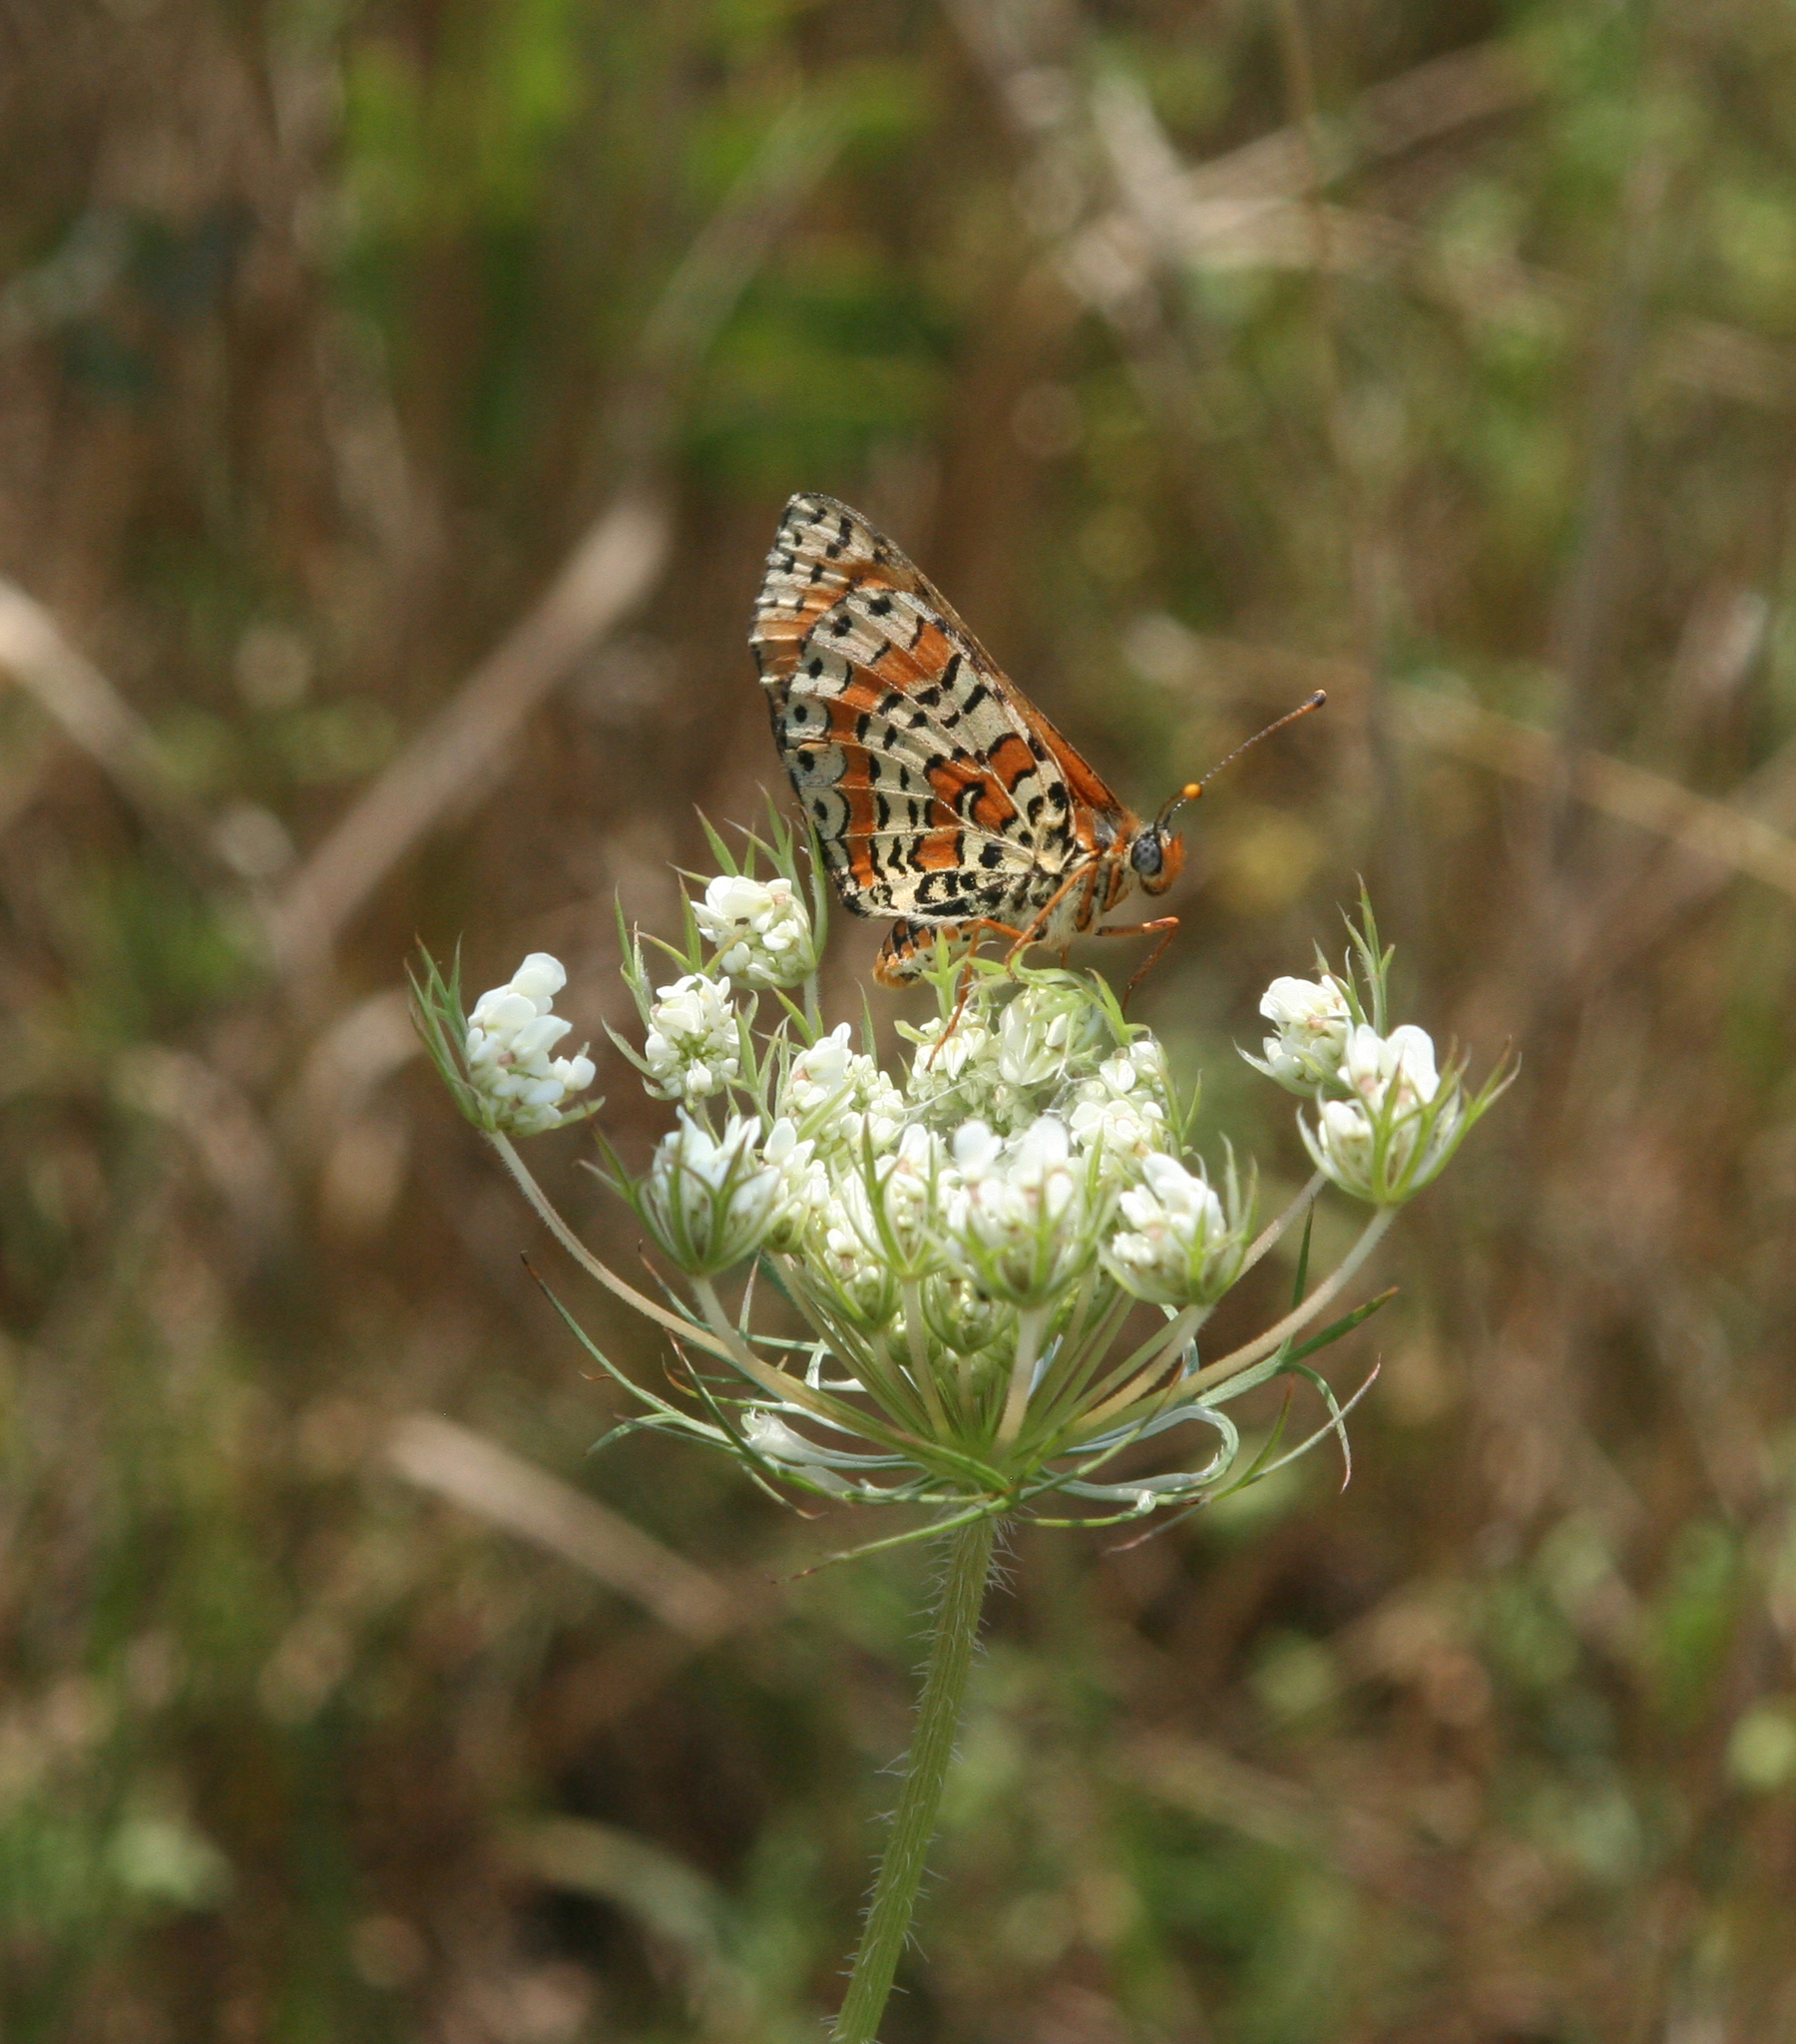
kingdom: Animalia
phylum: Arthropoda
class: Insecta
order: Lepidoptera
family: Nymphalidae
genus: Melitaea
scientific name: Melitaea didyma
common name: Spotted fritillary
